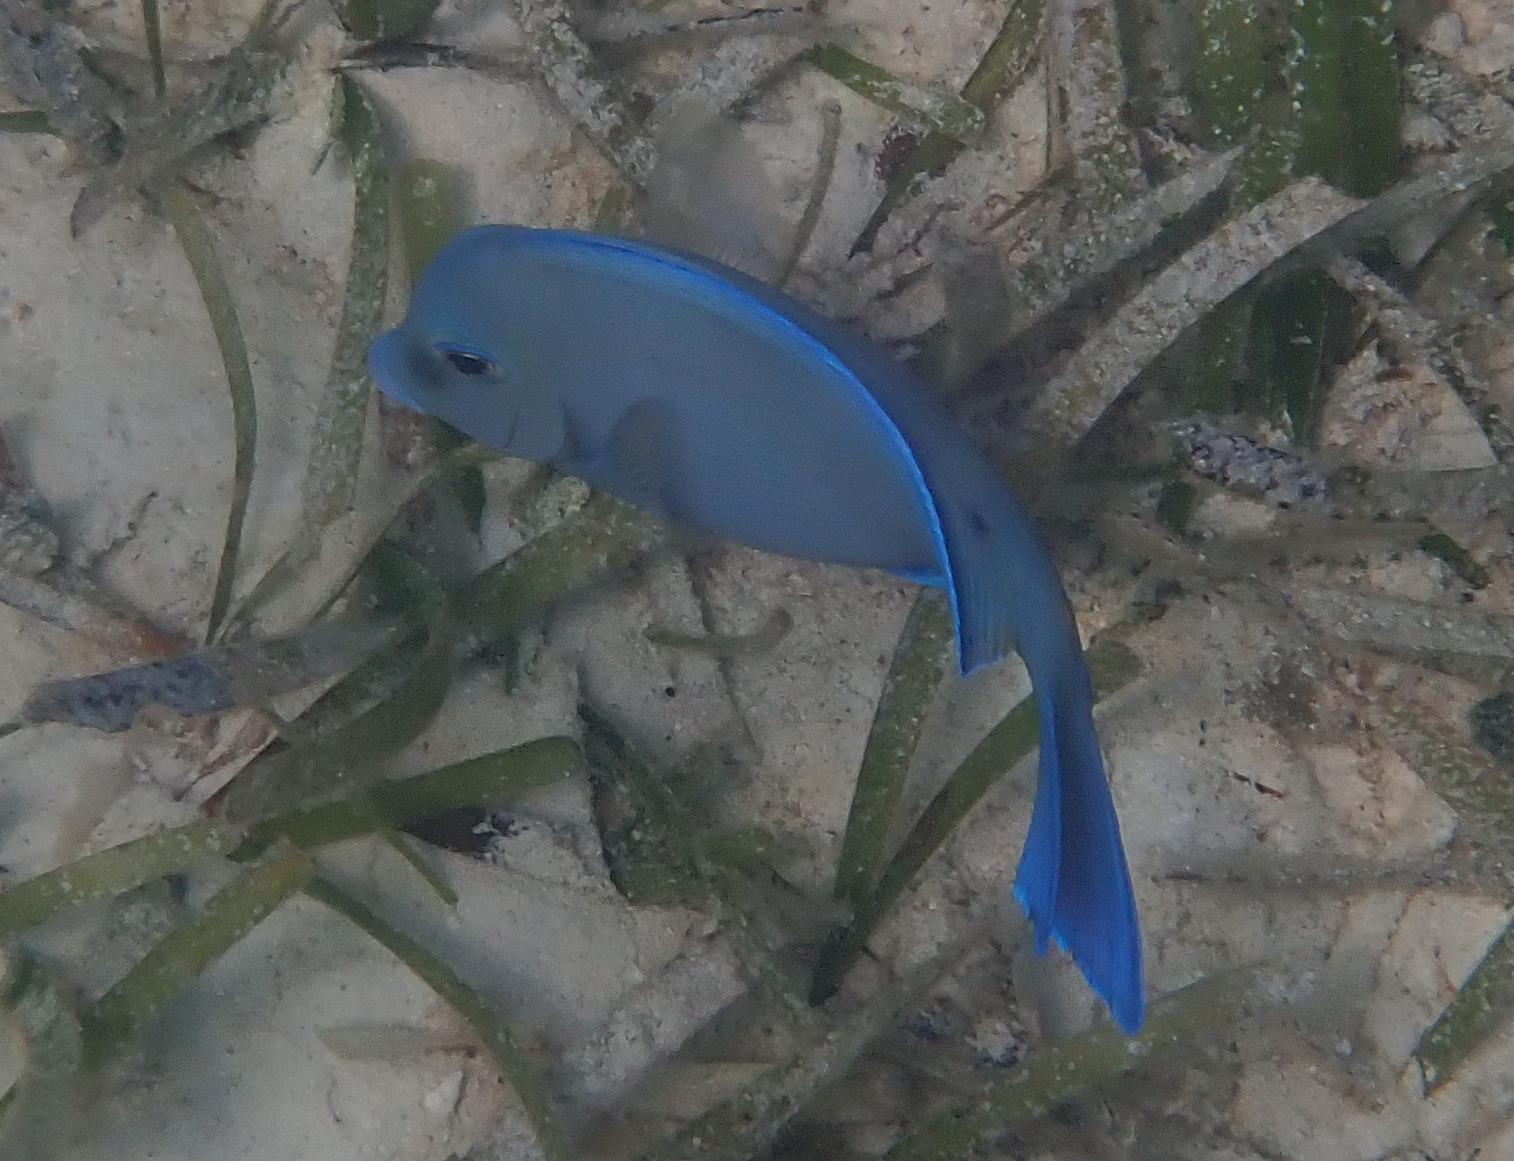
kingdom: Animalia
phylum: Chordata
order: Perciformes
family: Acanthuridae
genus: Acanthurus
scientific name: Acanthurus coeruleus
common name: Blue tang
